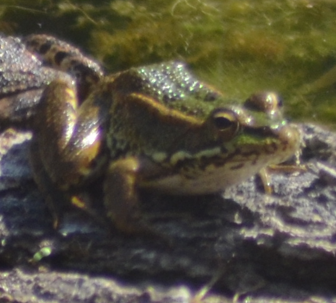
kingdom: Animalia
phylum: Chordata
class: Amphibia
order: Anura
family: Ranidae
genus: Pelophylax
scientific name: Pelophylax perezi
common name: Perez's frog
